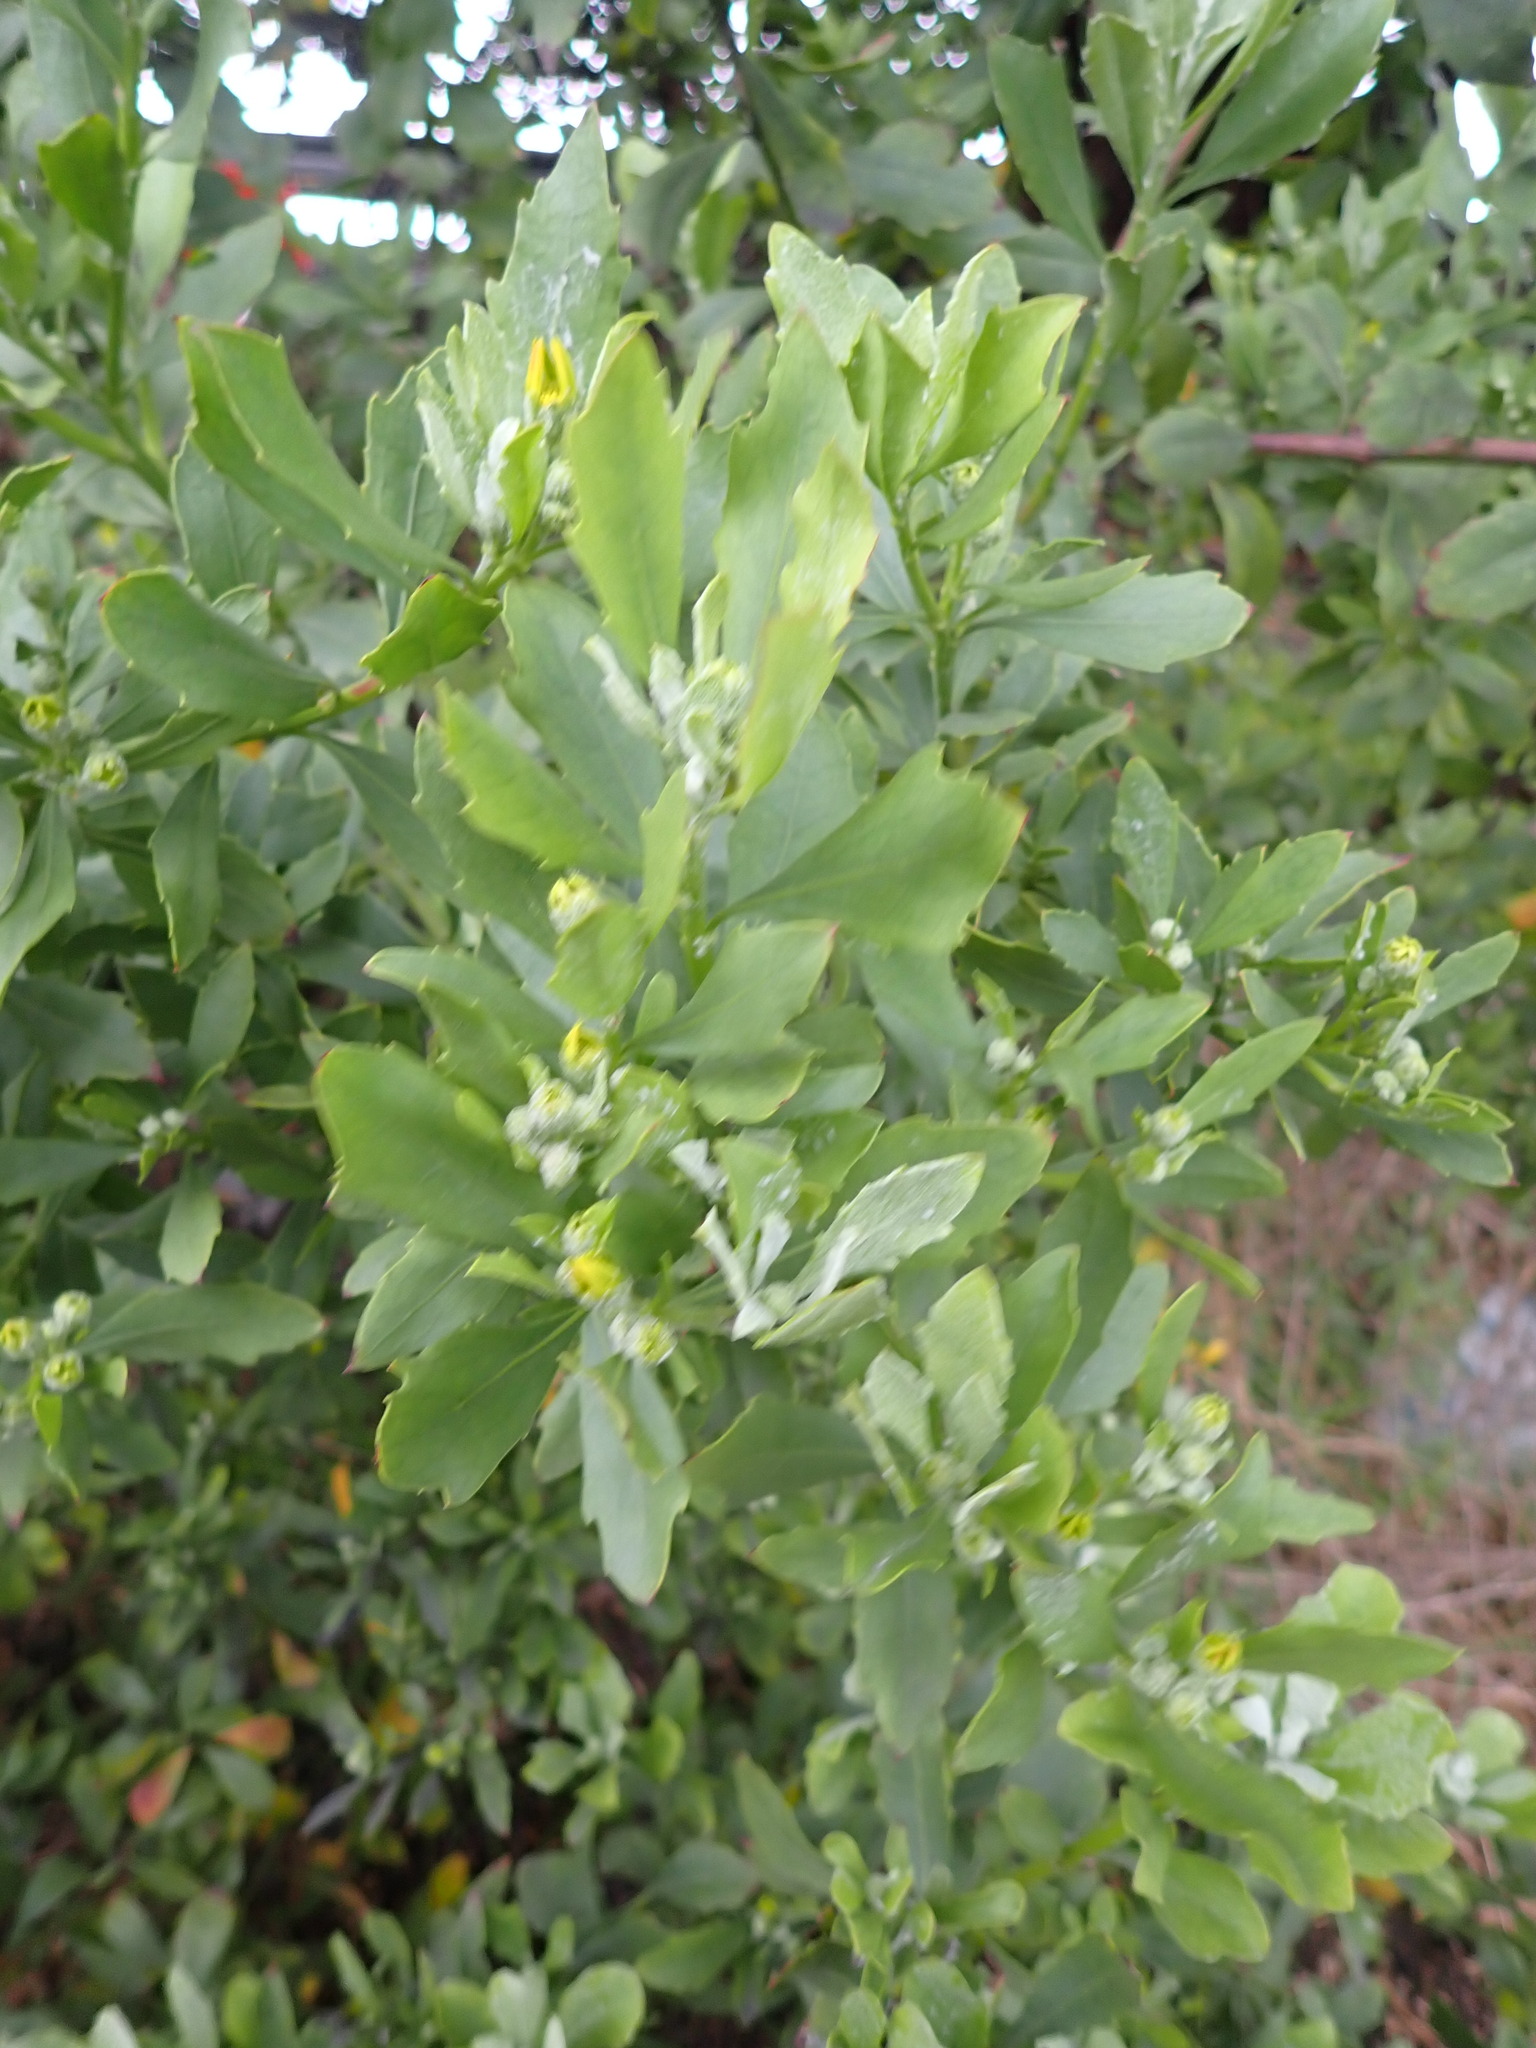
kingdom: Plantae
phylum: Tracheophyta
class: Magnoliopsida
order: Asterales
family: Asteraceae
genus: Osteospermum
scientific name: Osteospermum moniliferum
